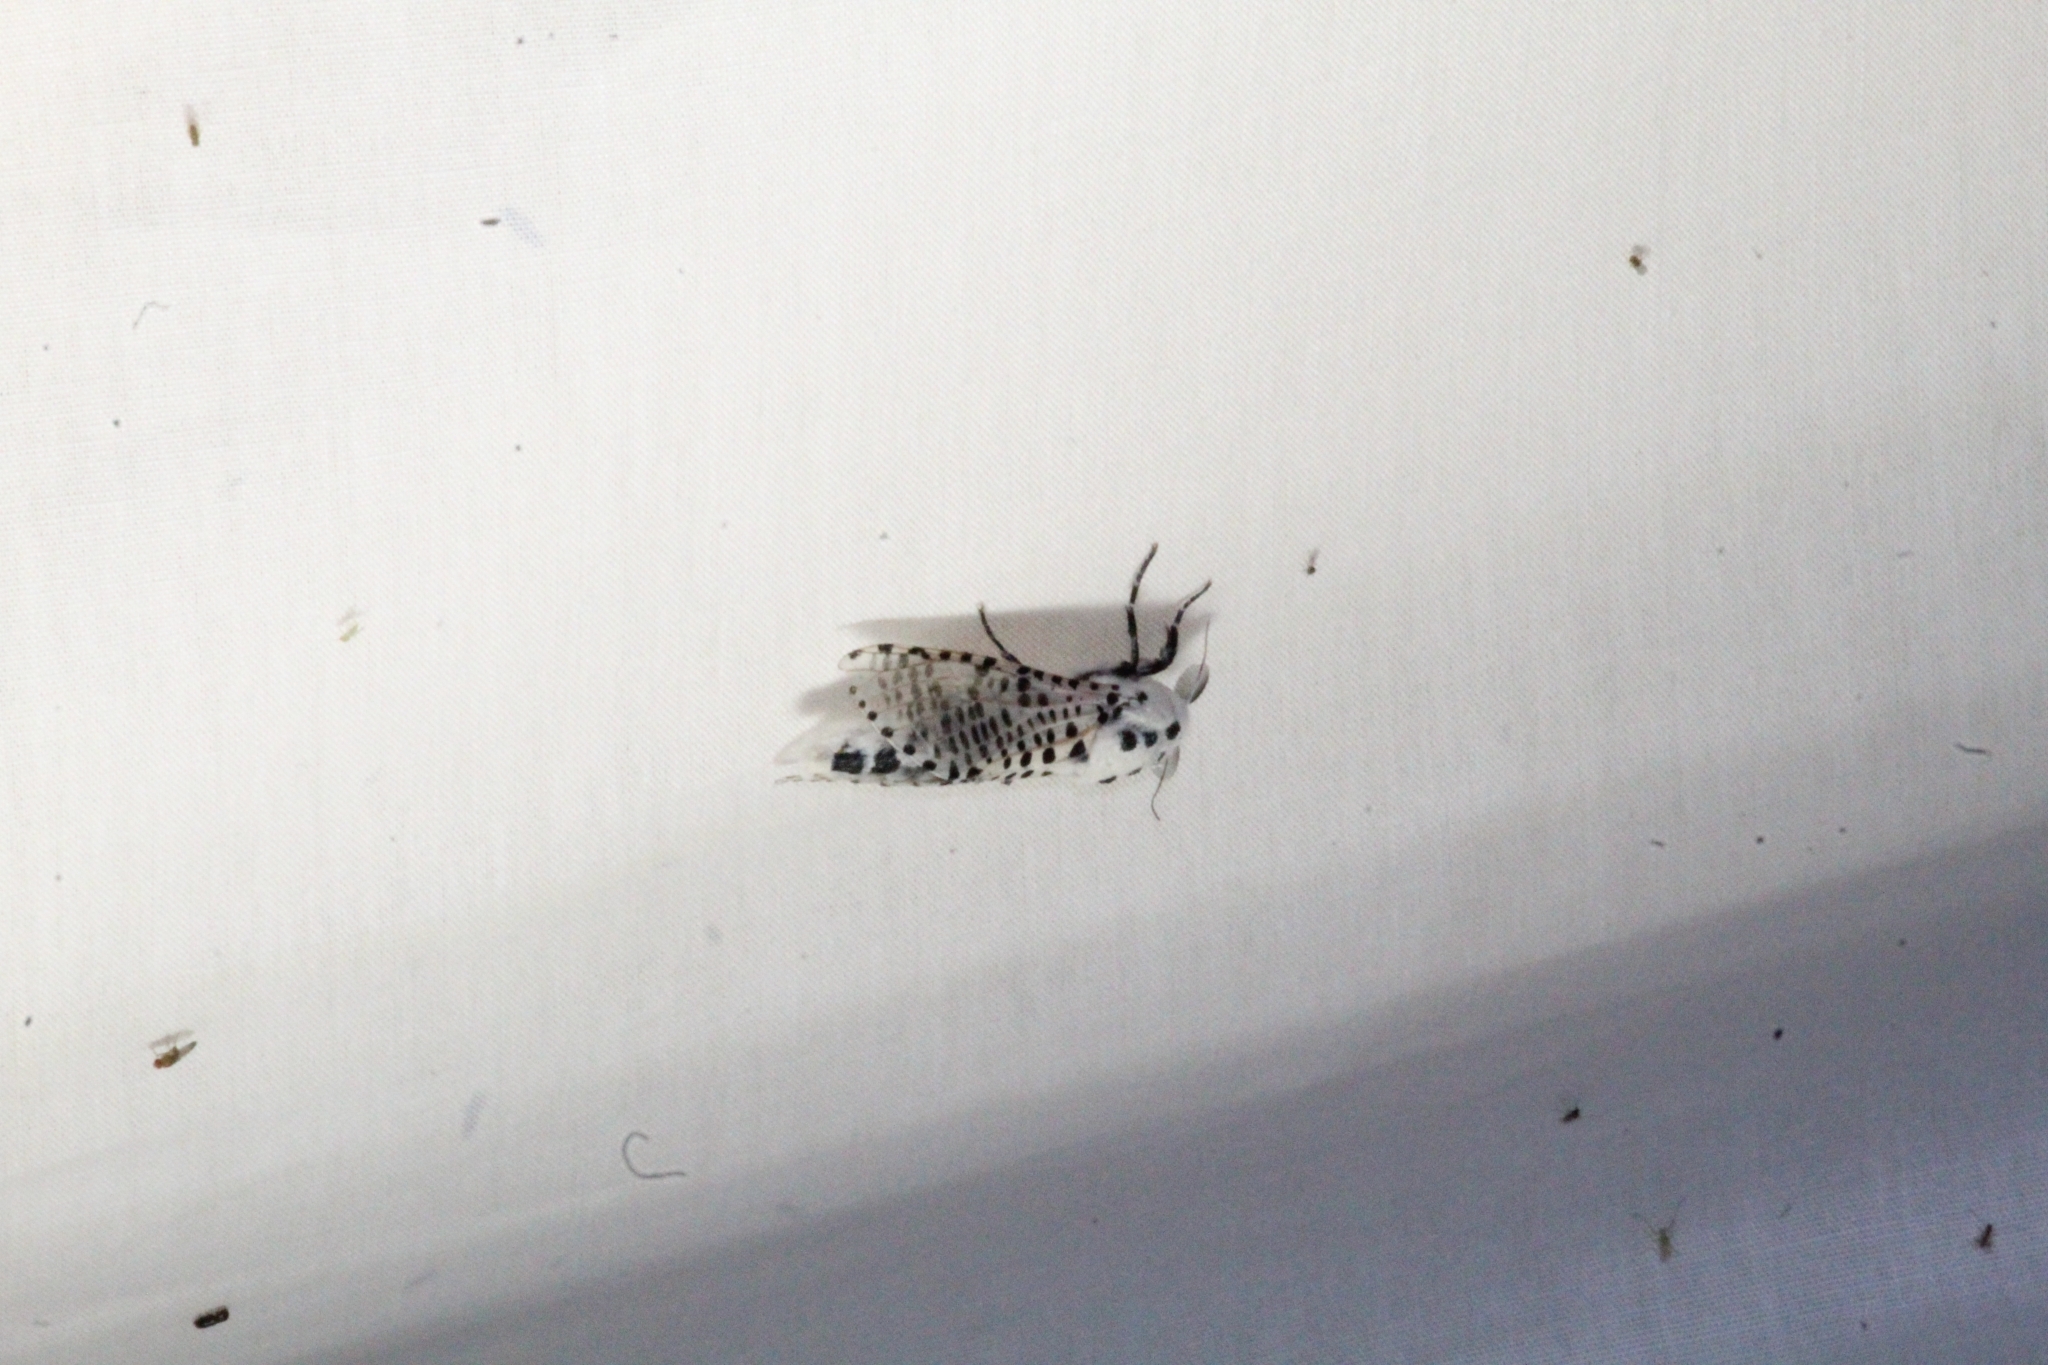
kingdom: Animalia
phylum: Arthropoda
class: Insecta
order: Lepidoptera
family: Cossidae
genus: Zeuzera
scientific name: Zeuzera pyrina
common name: Leopard moth
